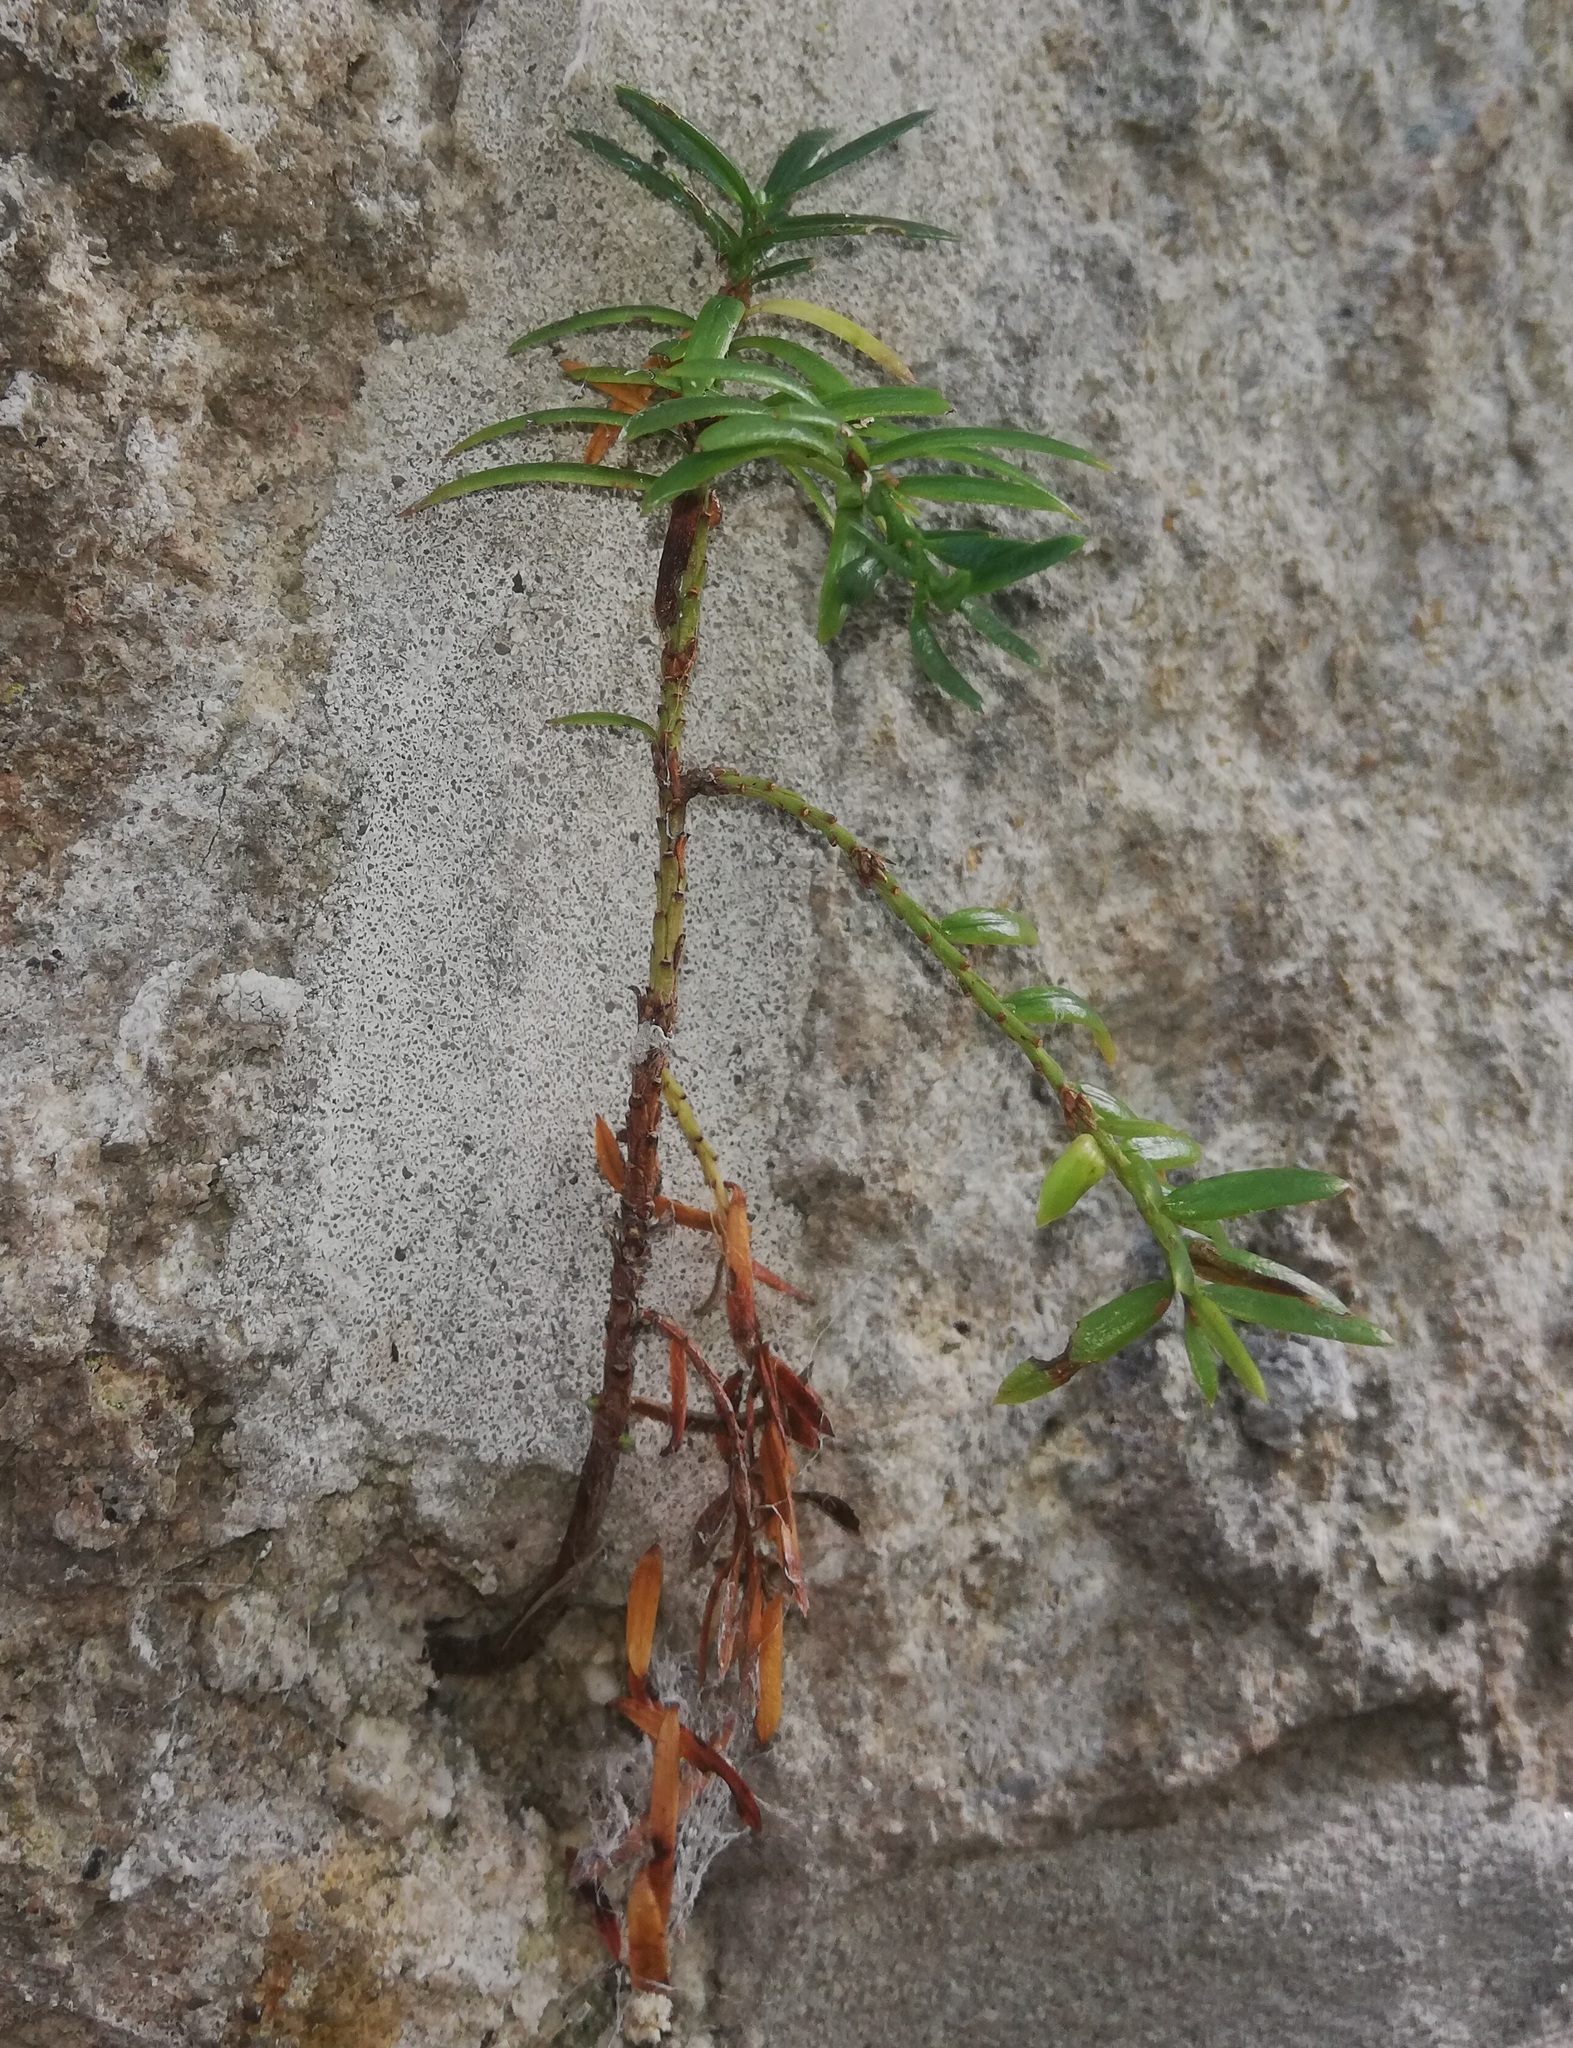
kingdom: Plantae
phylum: Tracheophyta
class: Pinopsida
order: Pinales
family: Taxaceae
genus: Taxus
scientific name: Taxus baccata
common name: Yew
